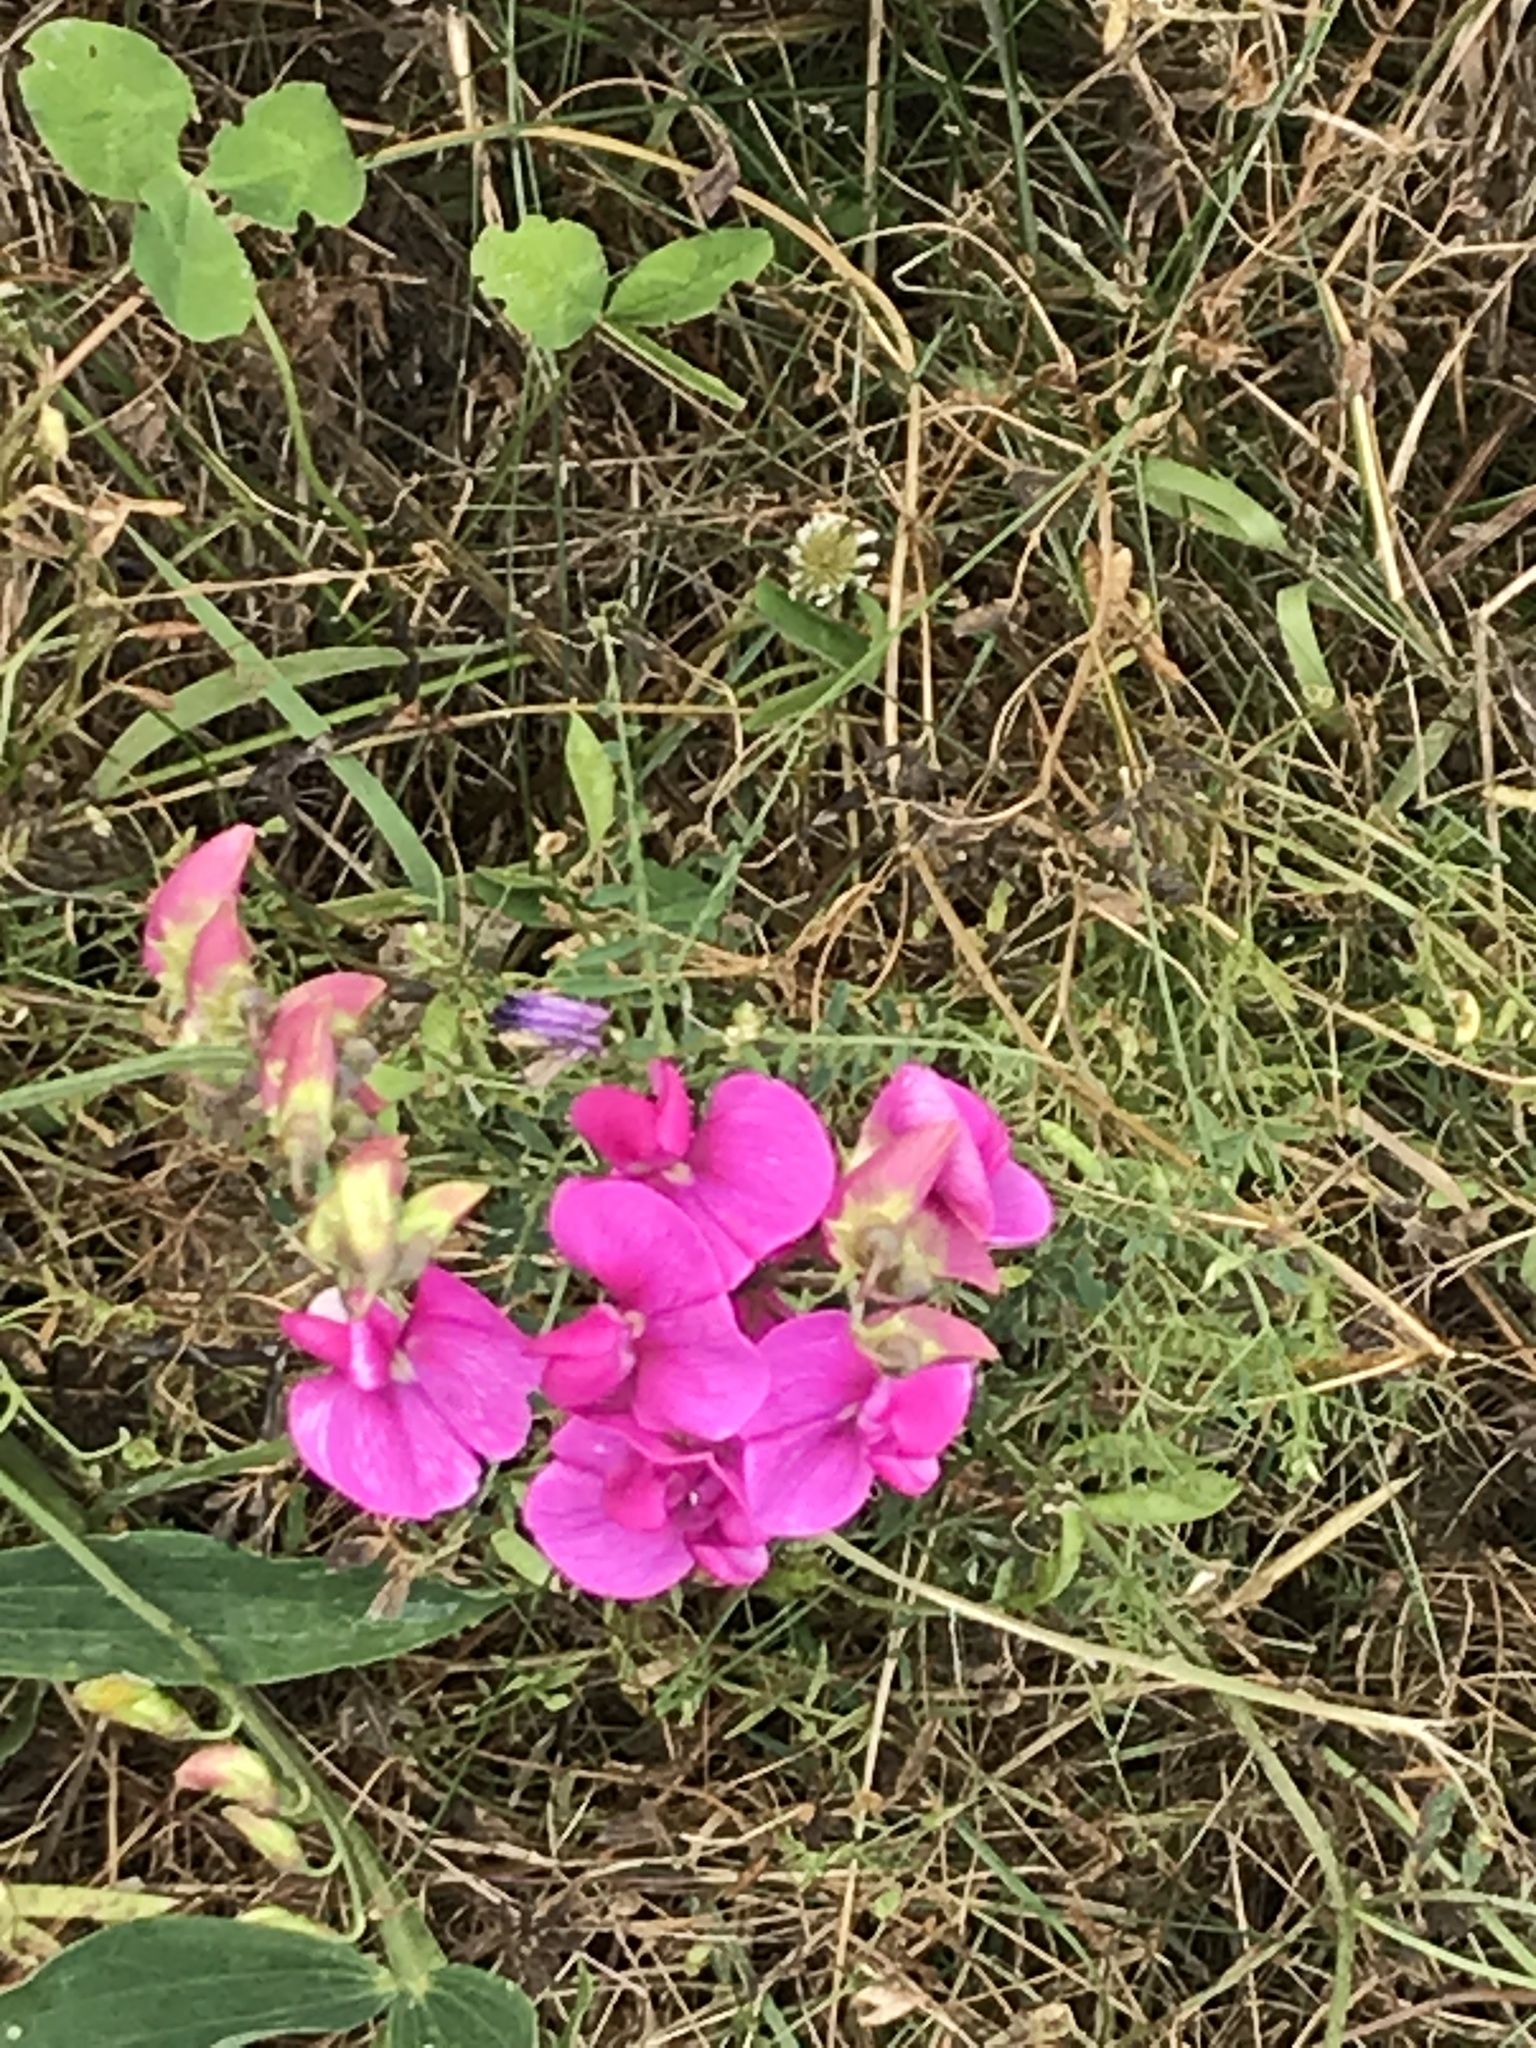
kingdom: Plantae
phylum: Tracheophyta
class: Magnoliopsida
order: Fabales
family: Fabaceae
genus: Lathyrus
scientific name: Lathyrus latifolius
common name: Perennial pea
